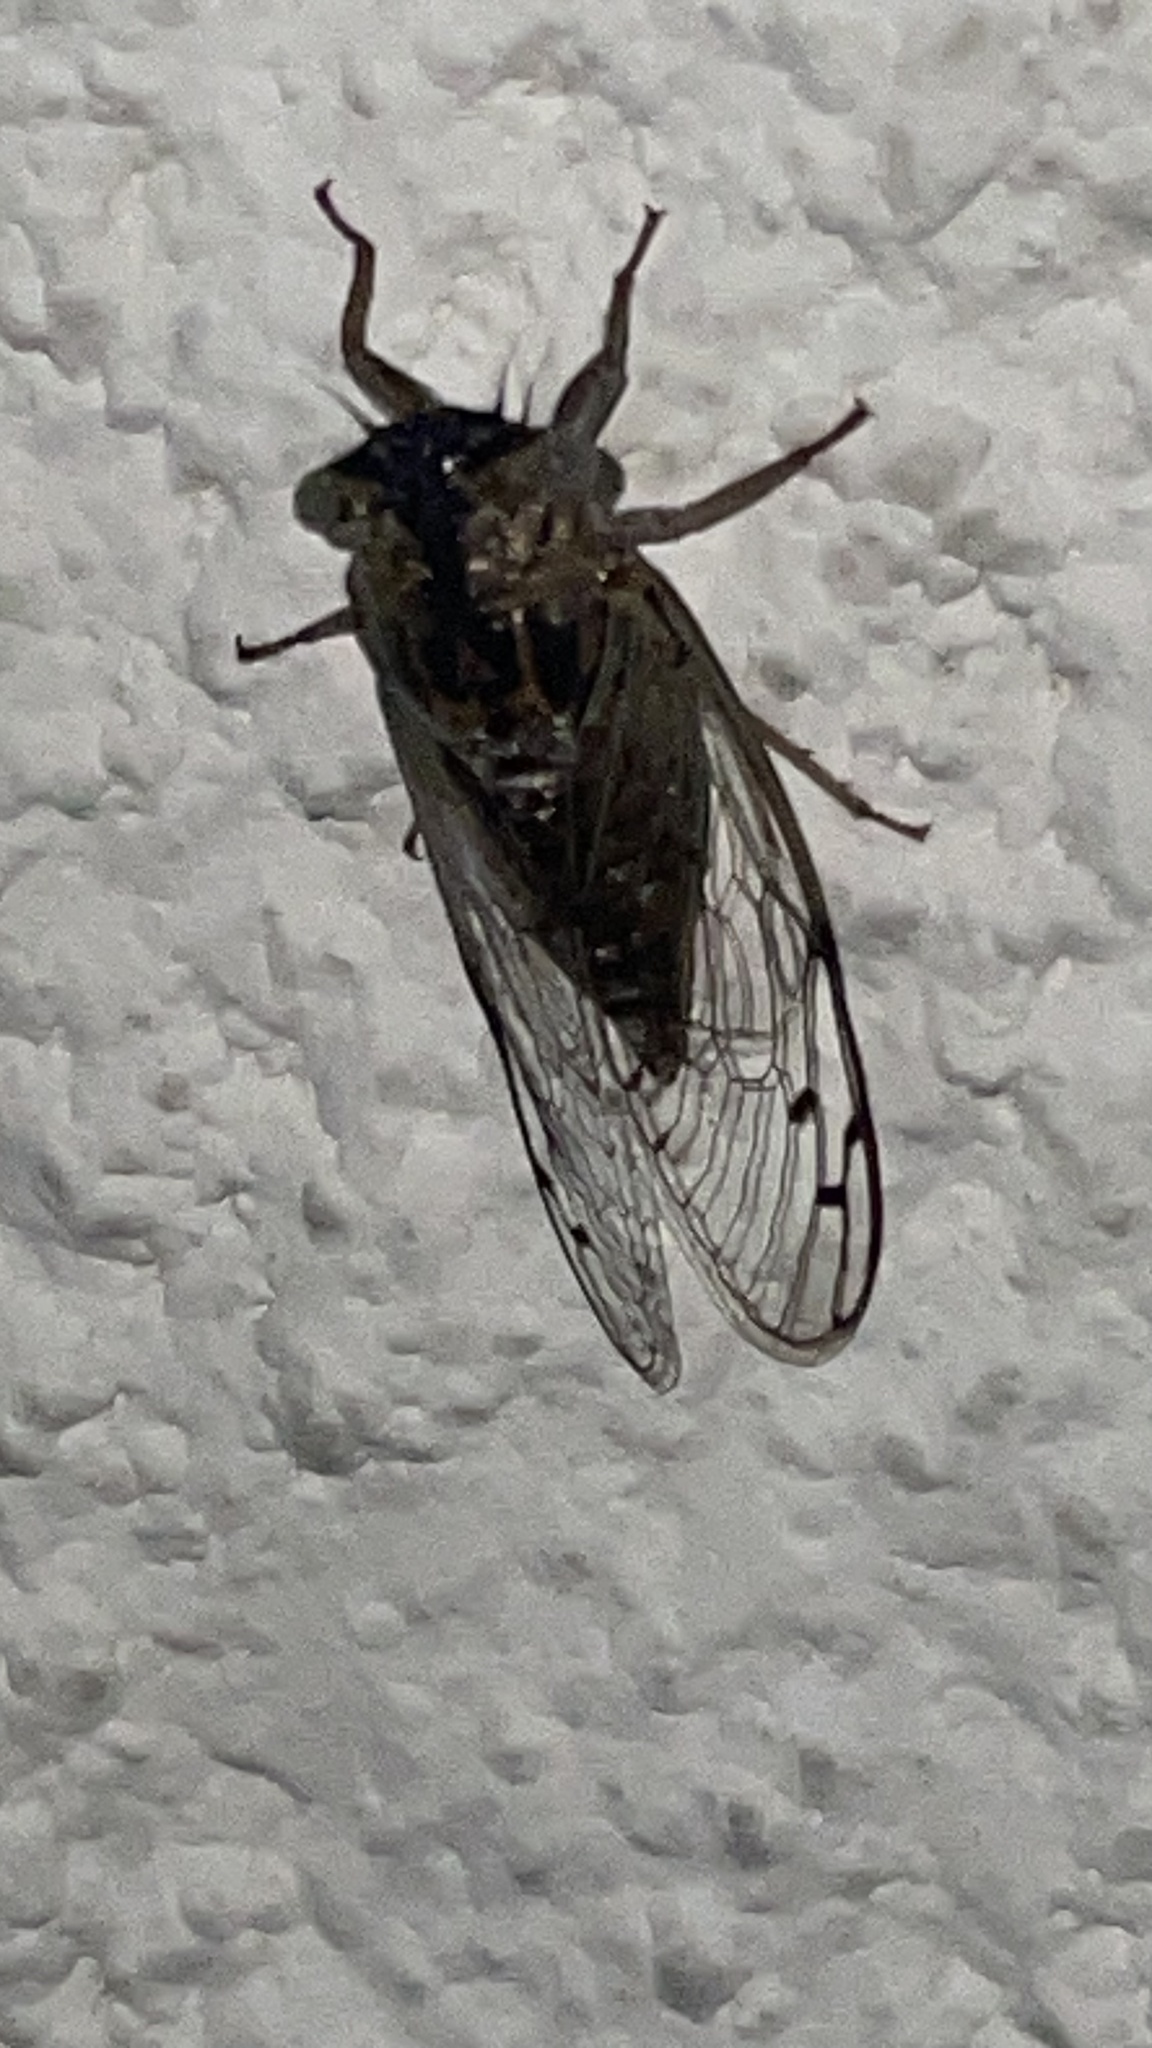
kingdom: Animalia
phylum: Arthropoda
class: Insecta
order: Hemiptera
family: Cicadidae
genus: Pacarina
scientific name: Pacarina puella
